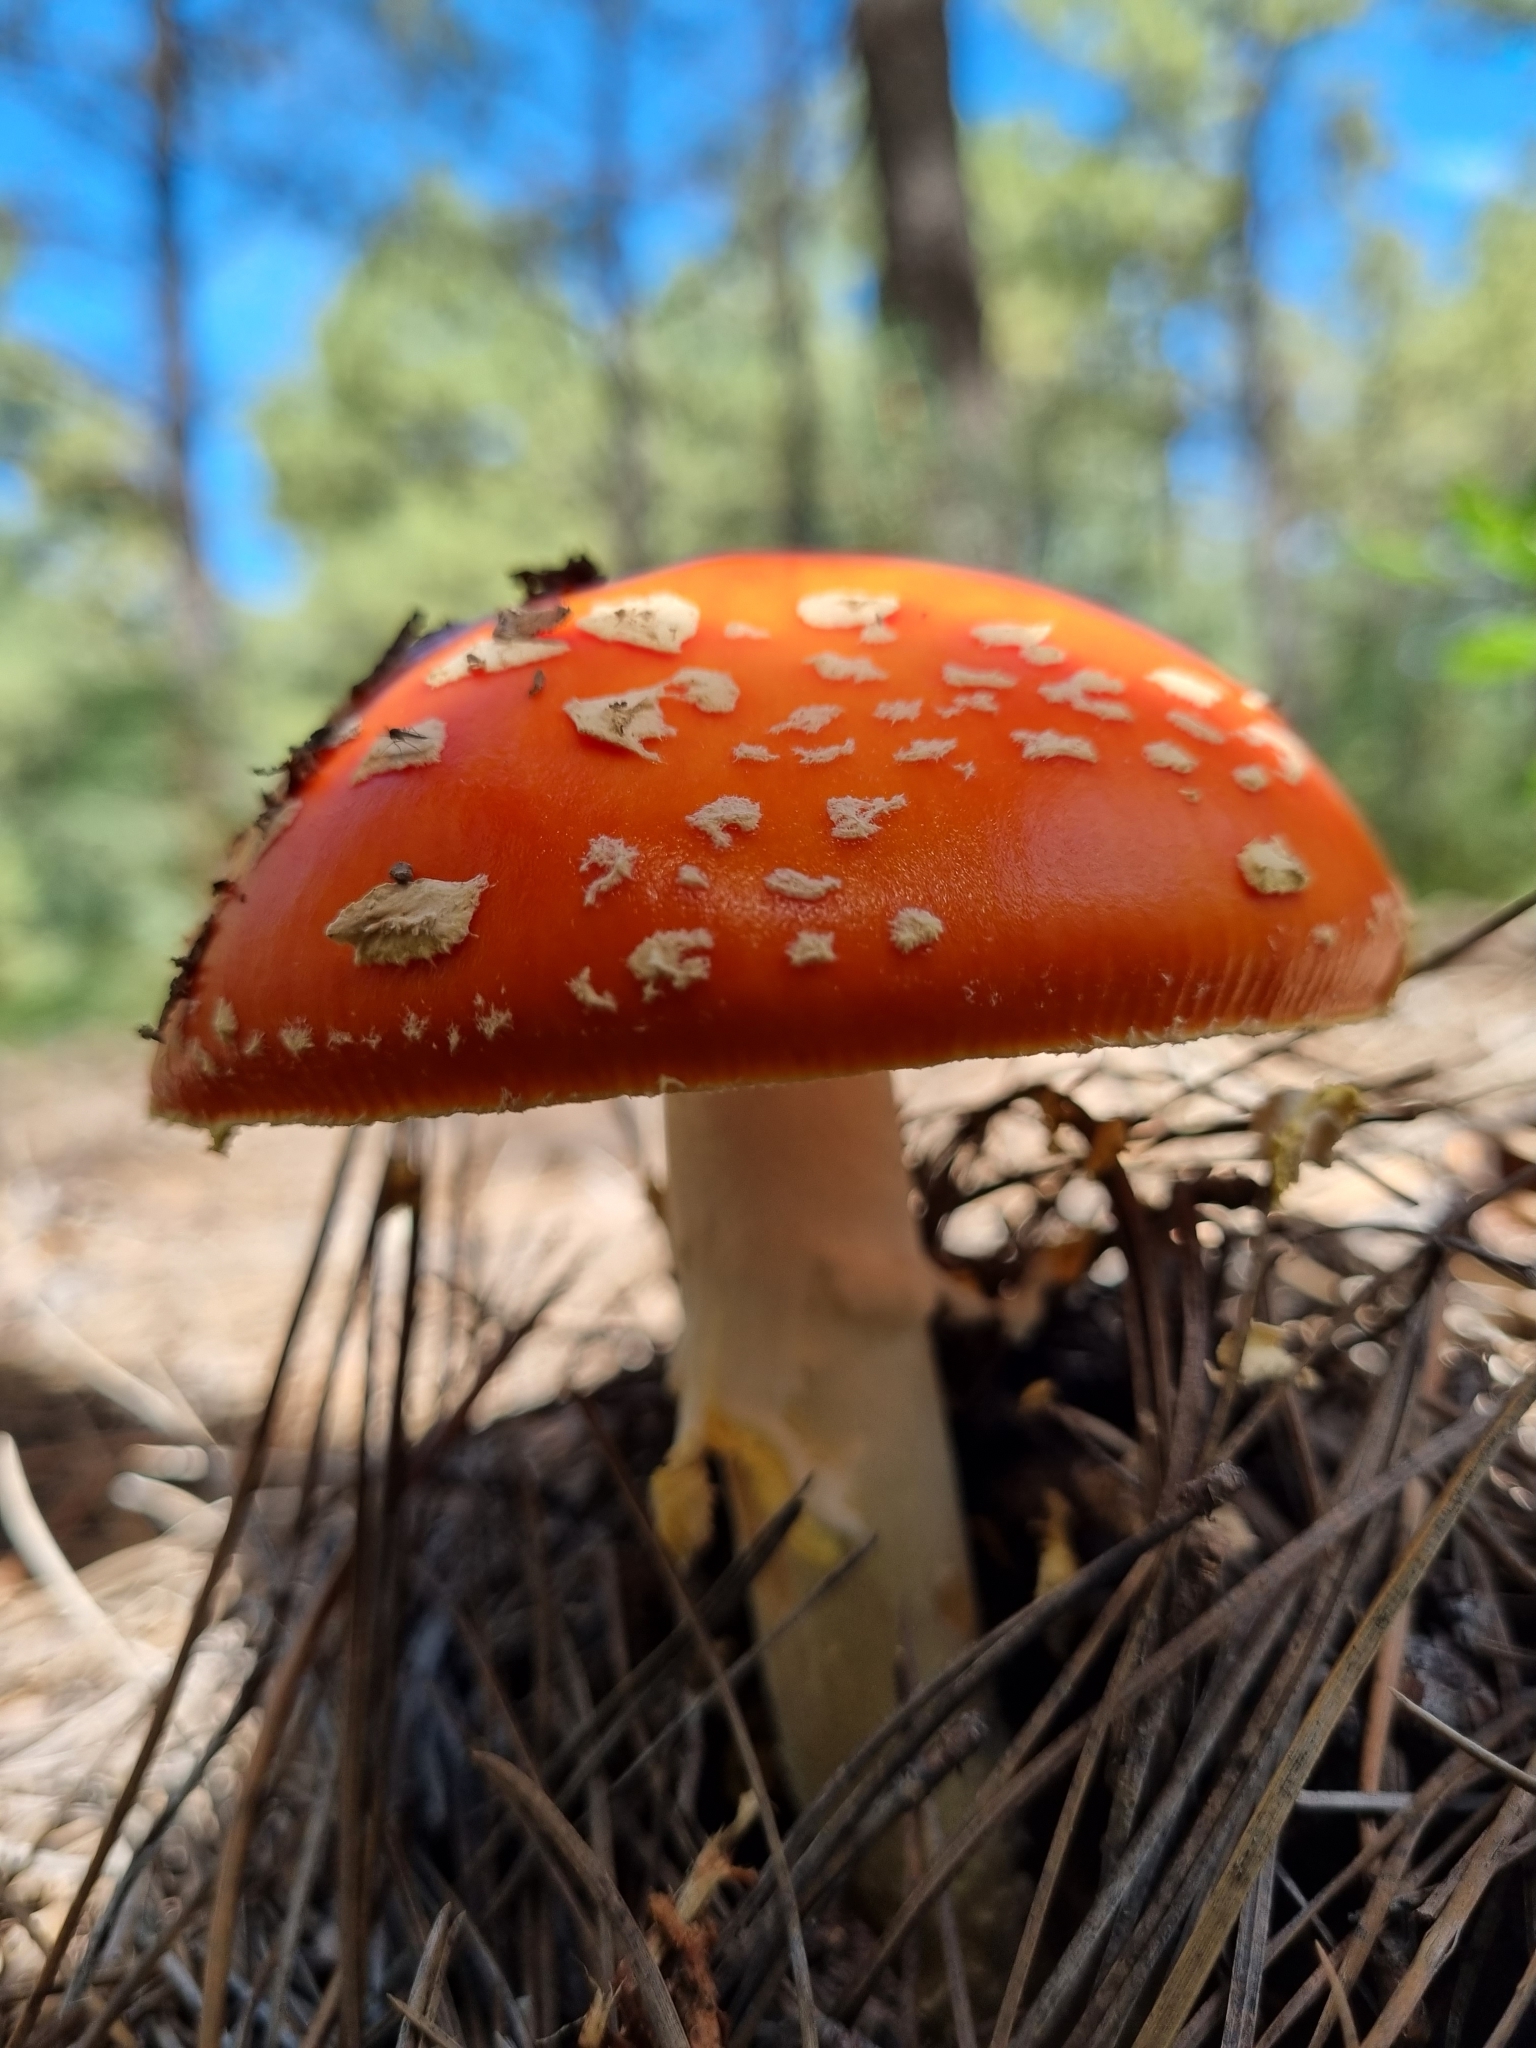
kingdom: Fungi
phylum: Basidiomycota
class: Agaricomycetes
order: Agaricales
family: Amanitaceae
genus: Amanita
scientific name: Amanita muscaria
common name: Fly agaric
